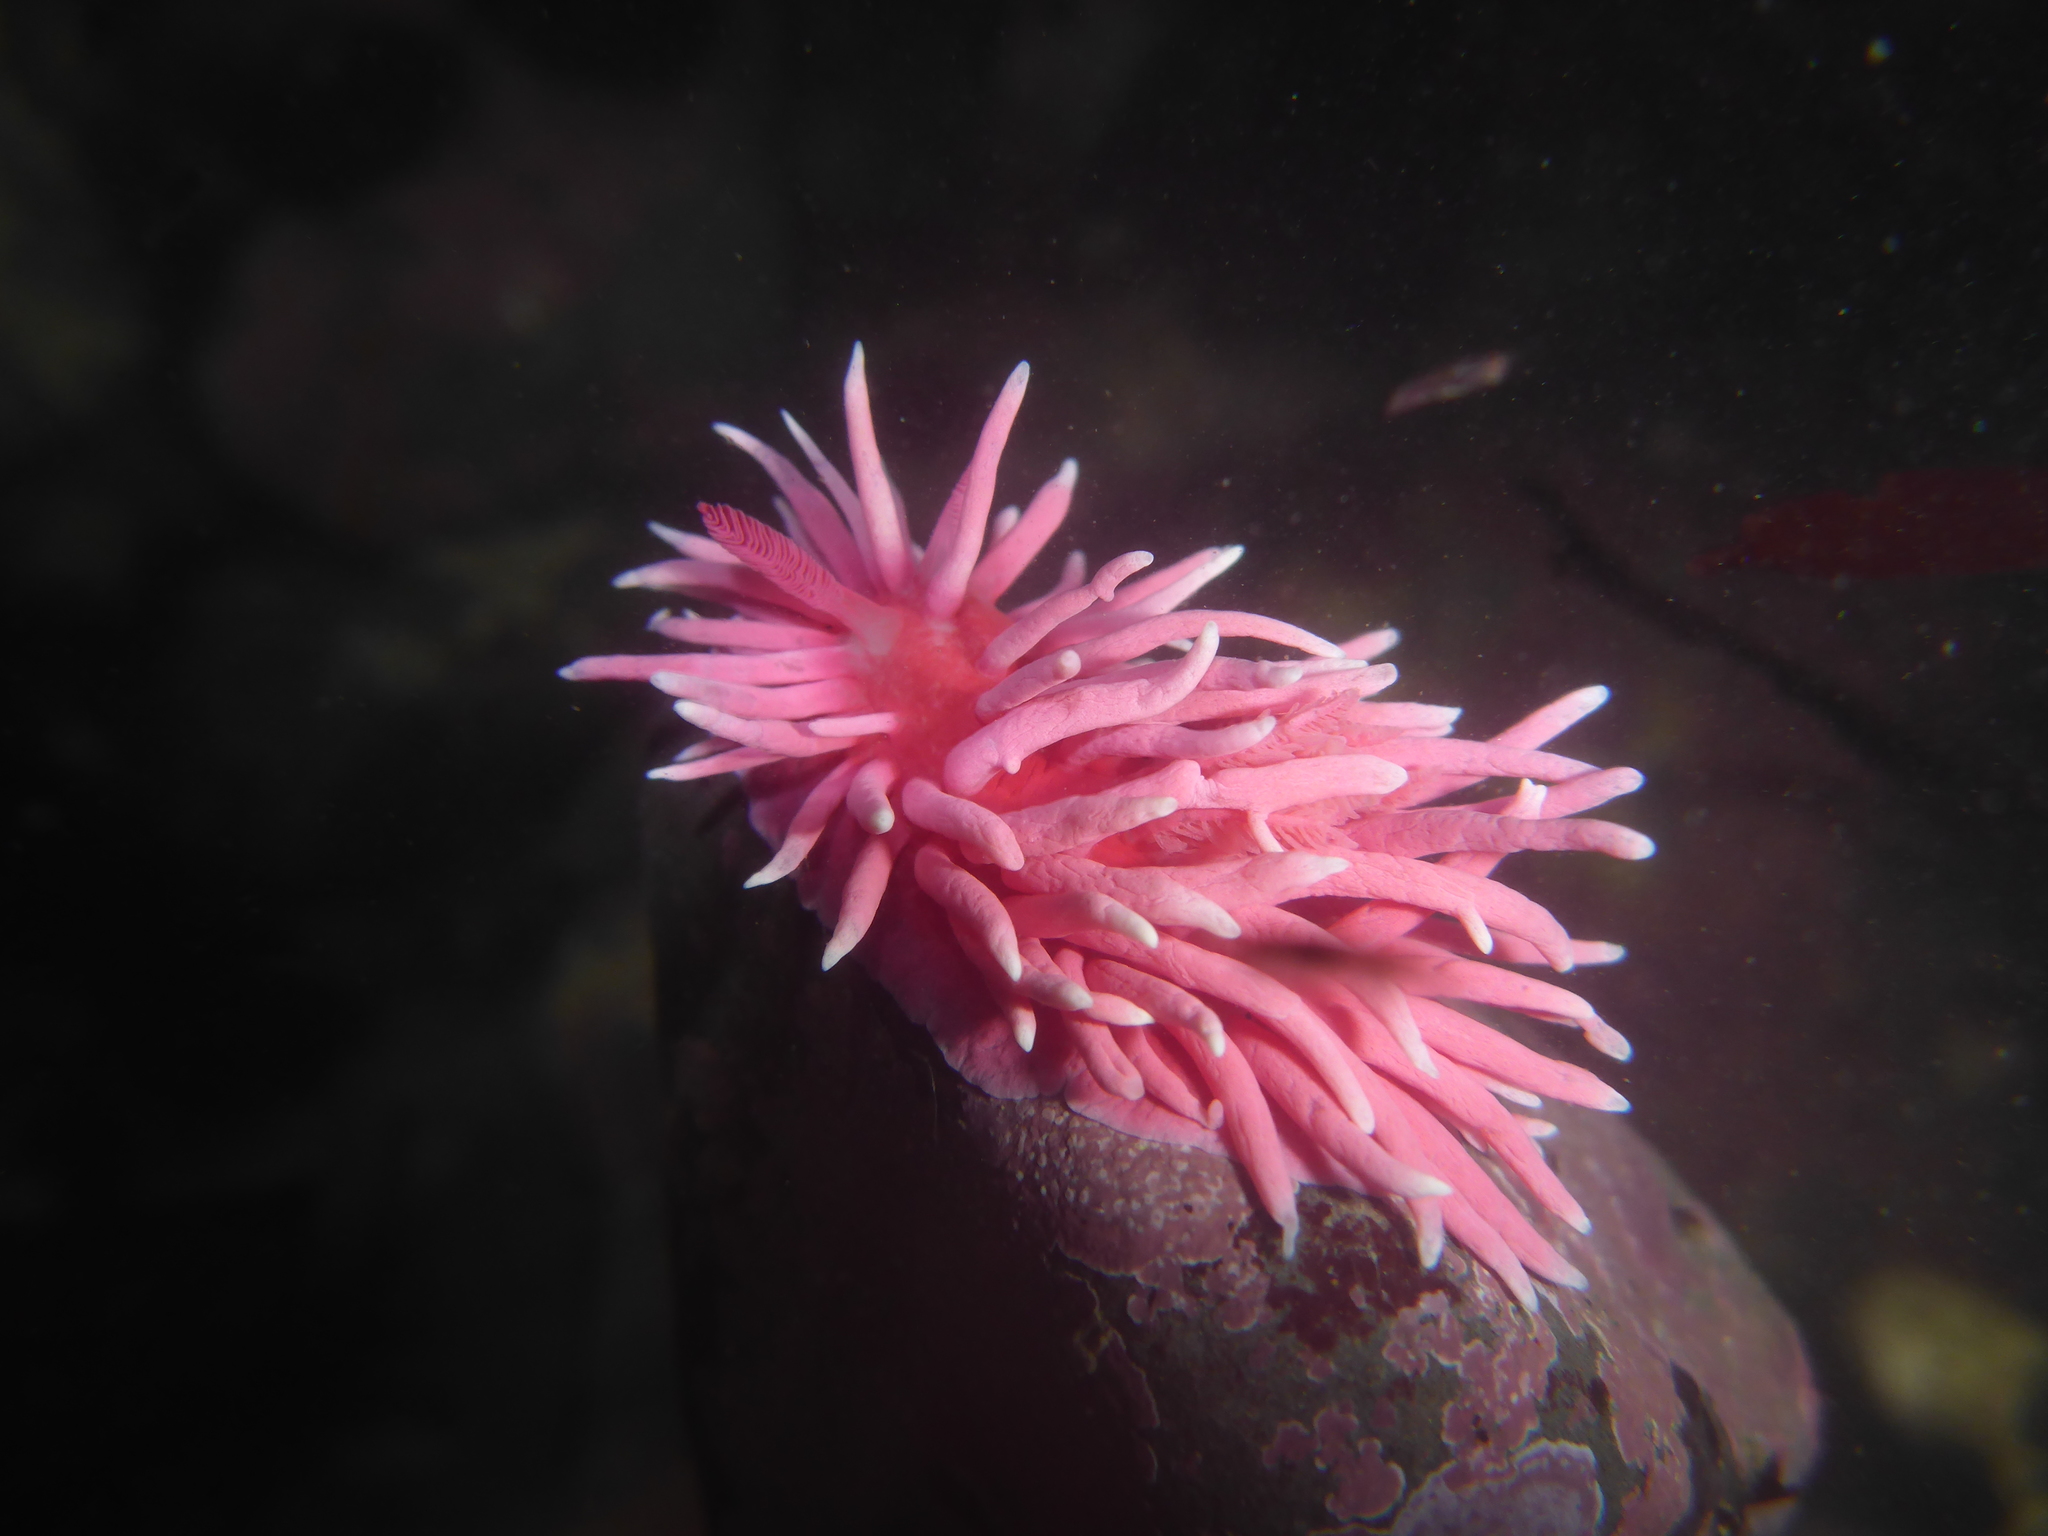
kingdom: Animalia
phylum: Mollusca
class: Gastropoda
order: Nudibranchia
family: Goniodorididae
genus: Okenia
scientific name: Okenia
